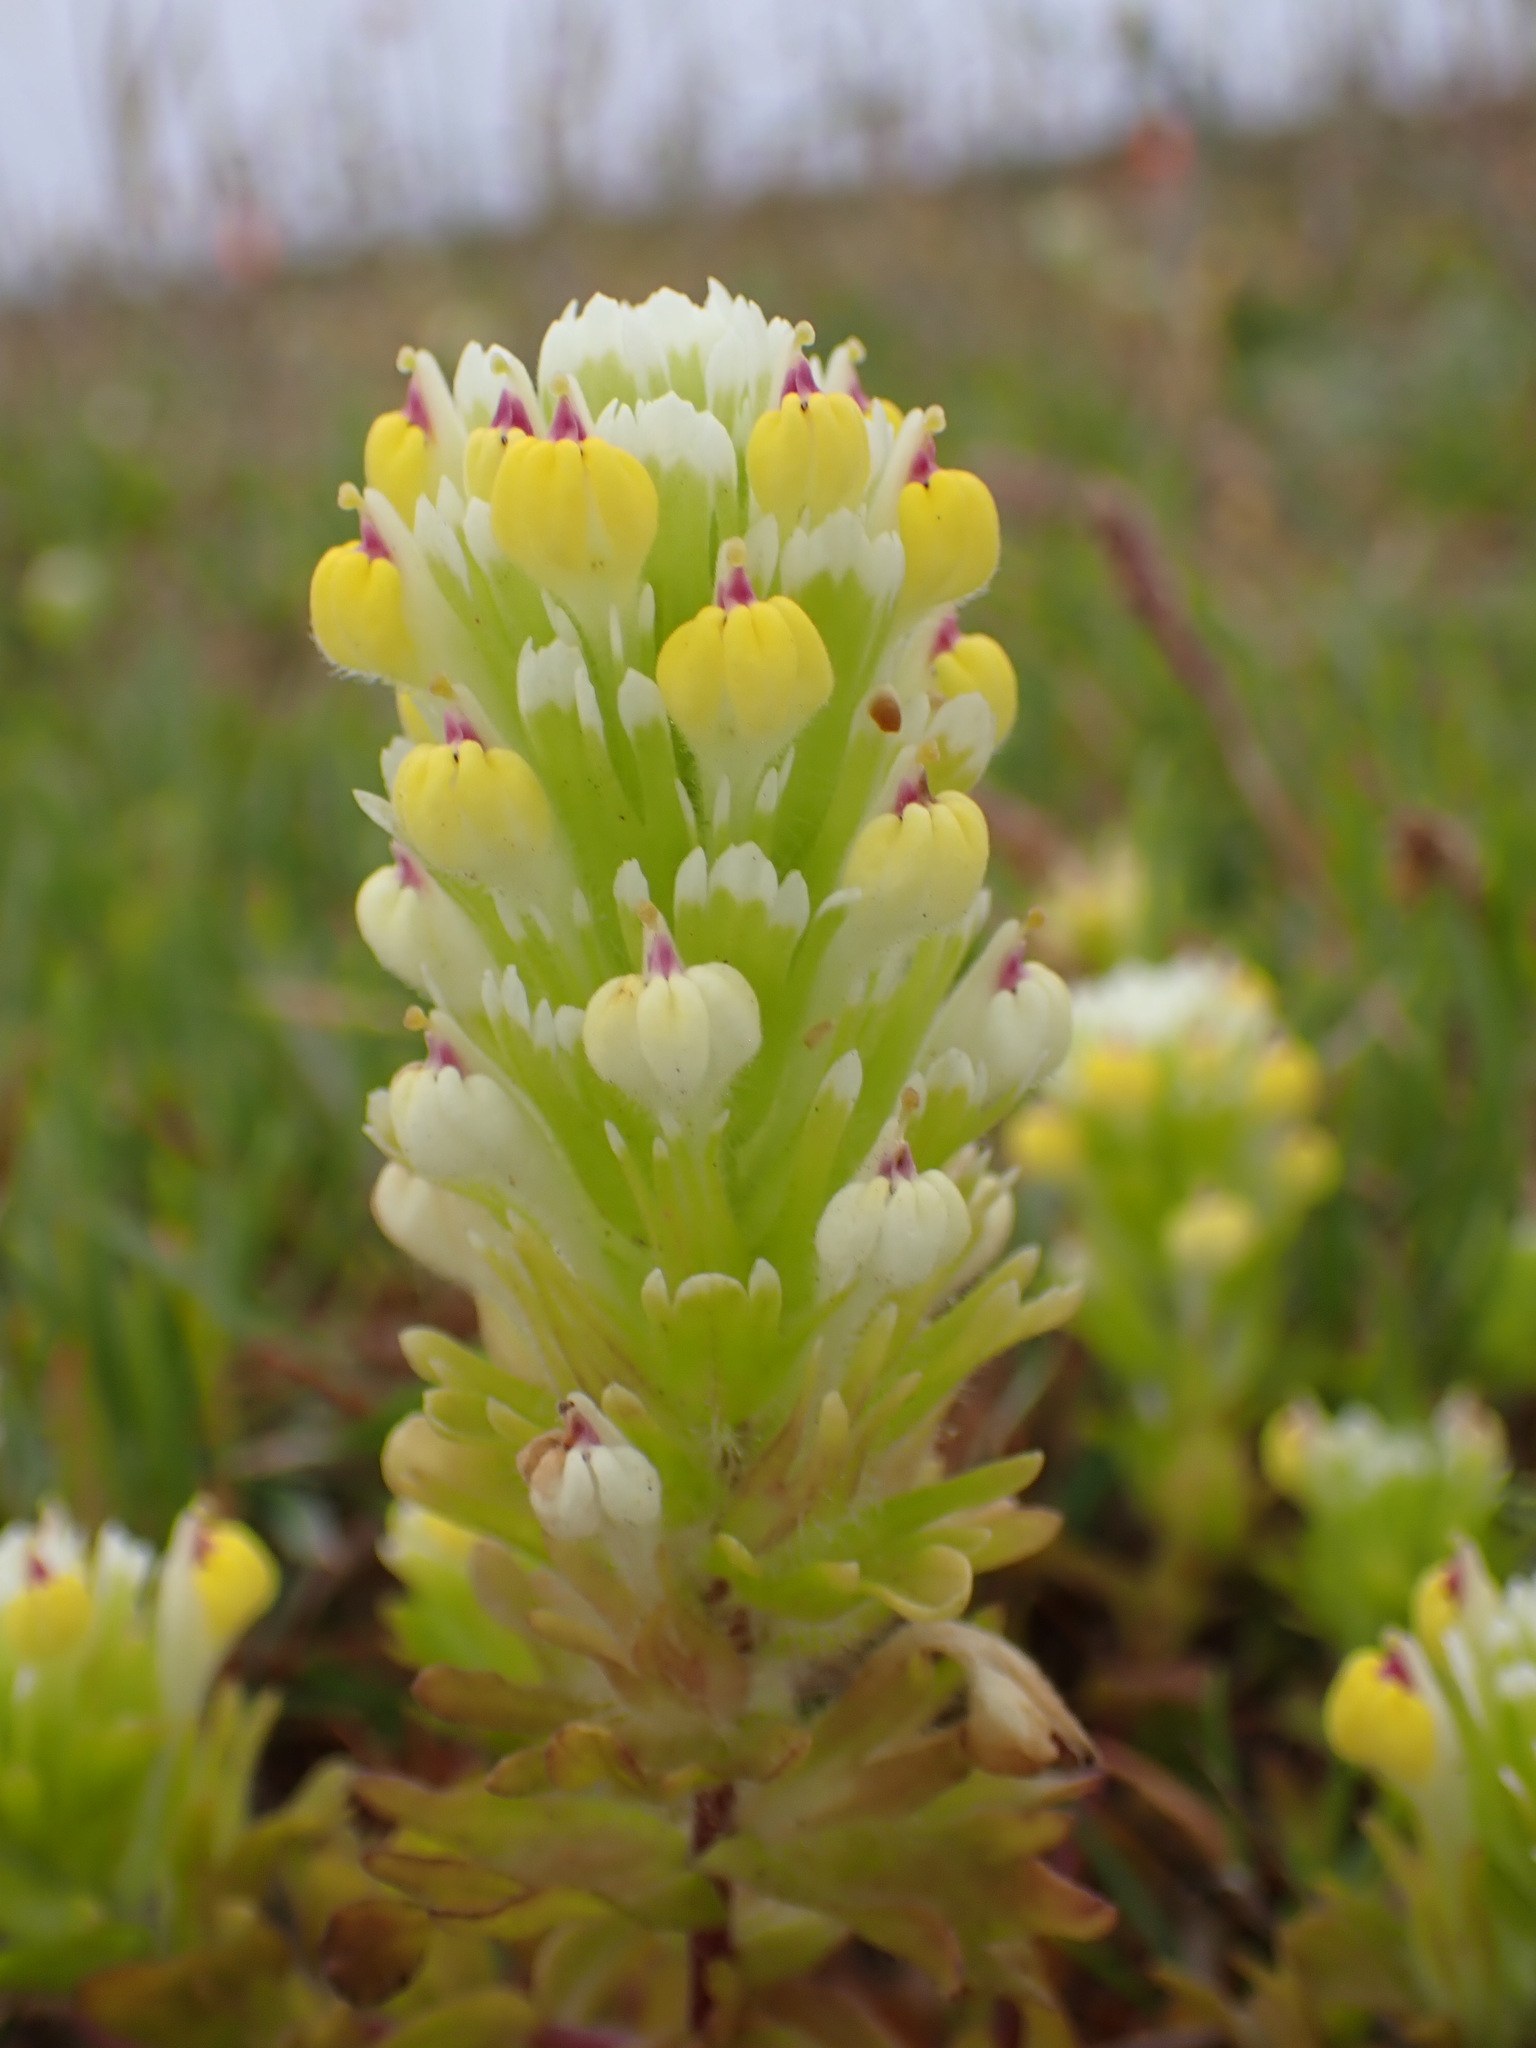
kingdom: Plantae
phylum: Tracheophyta
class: Magnoliopsida
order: Lamiales
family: Orobanchaceae
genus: Castilleja
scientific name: Castilleja ambigua
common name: Johnny-nip
